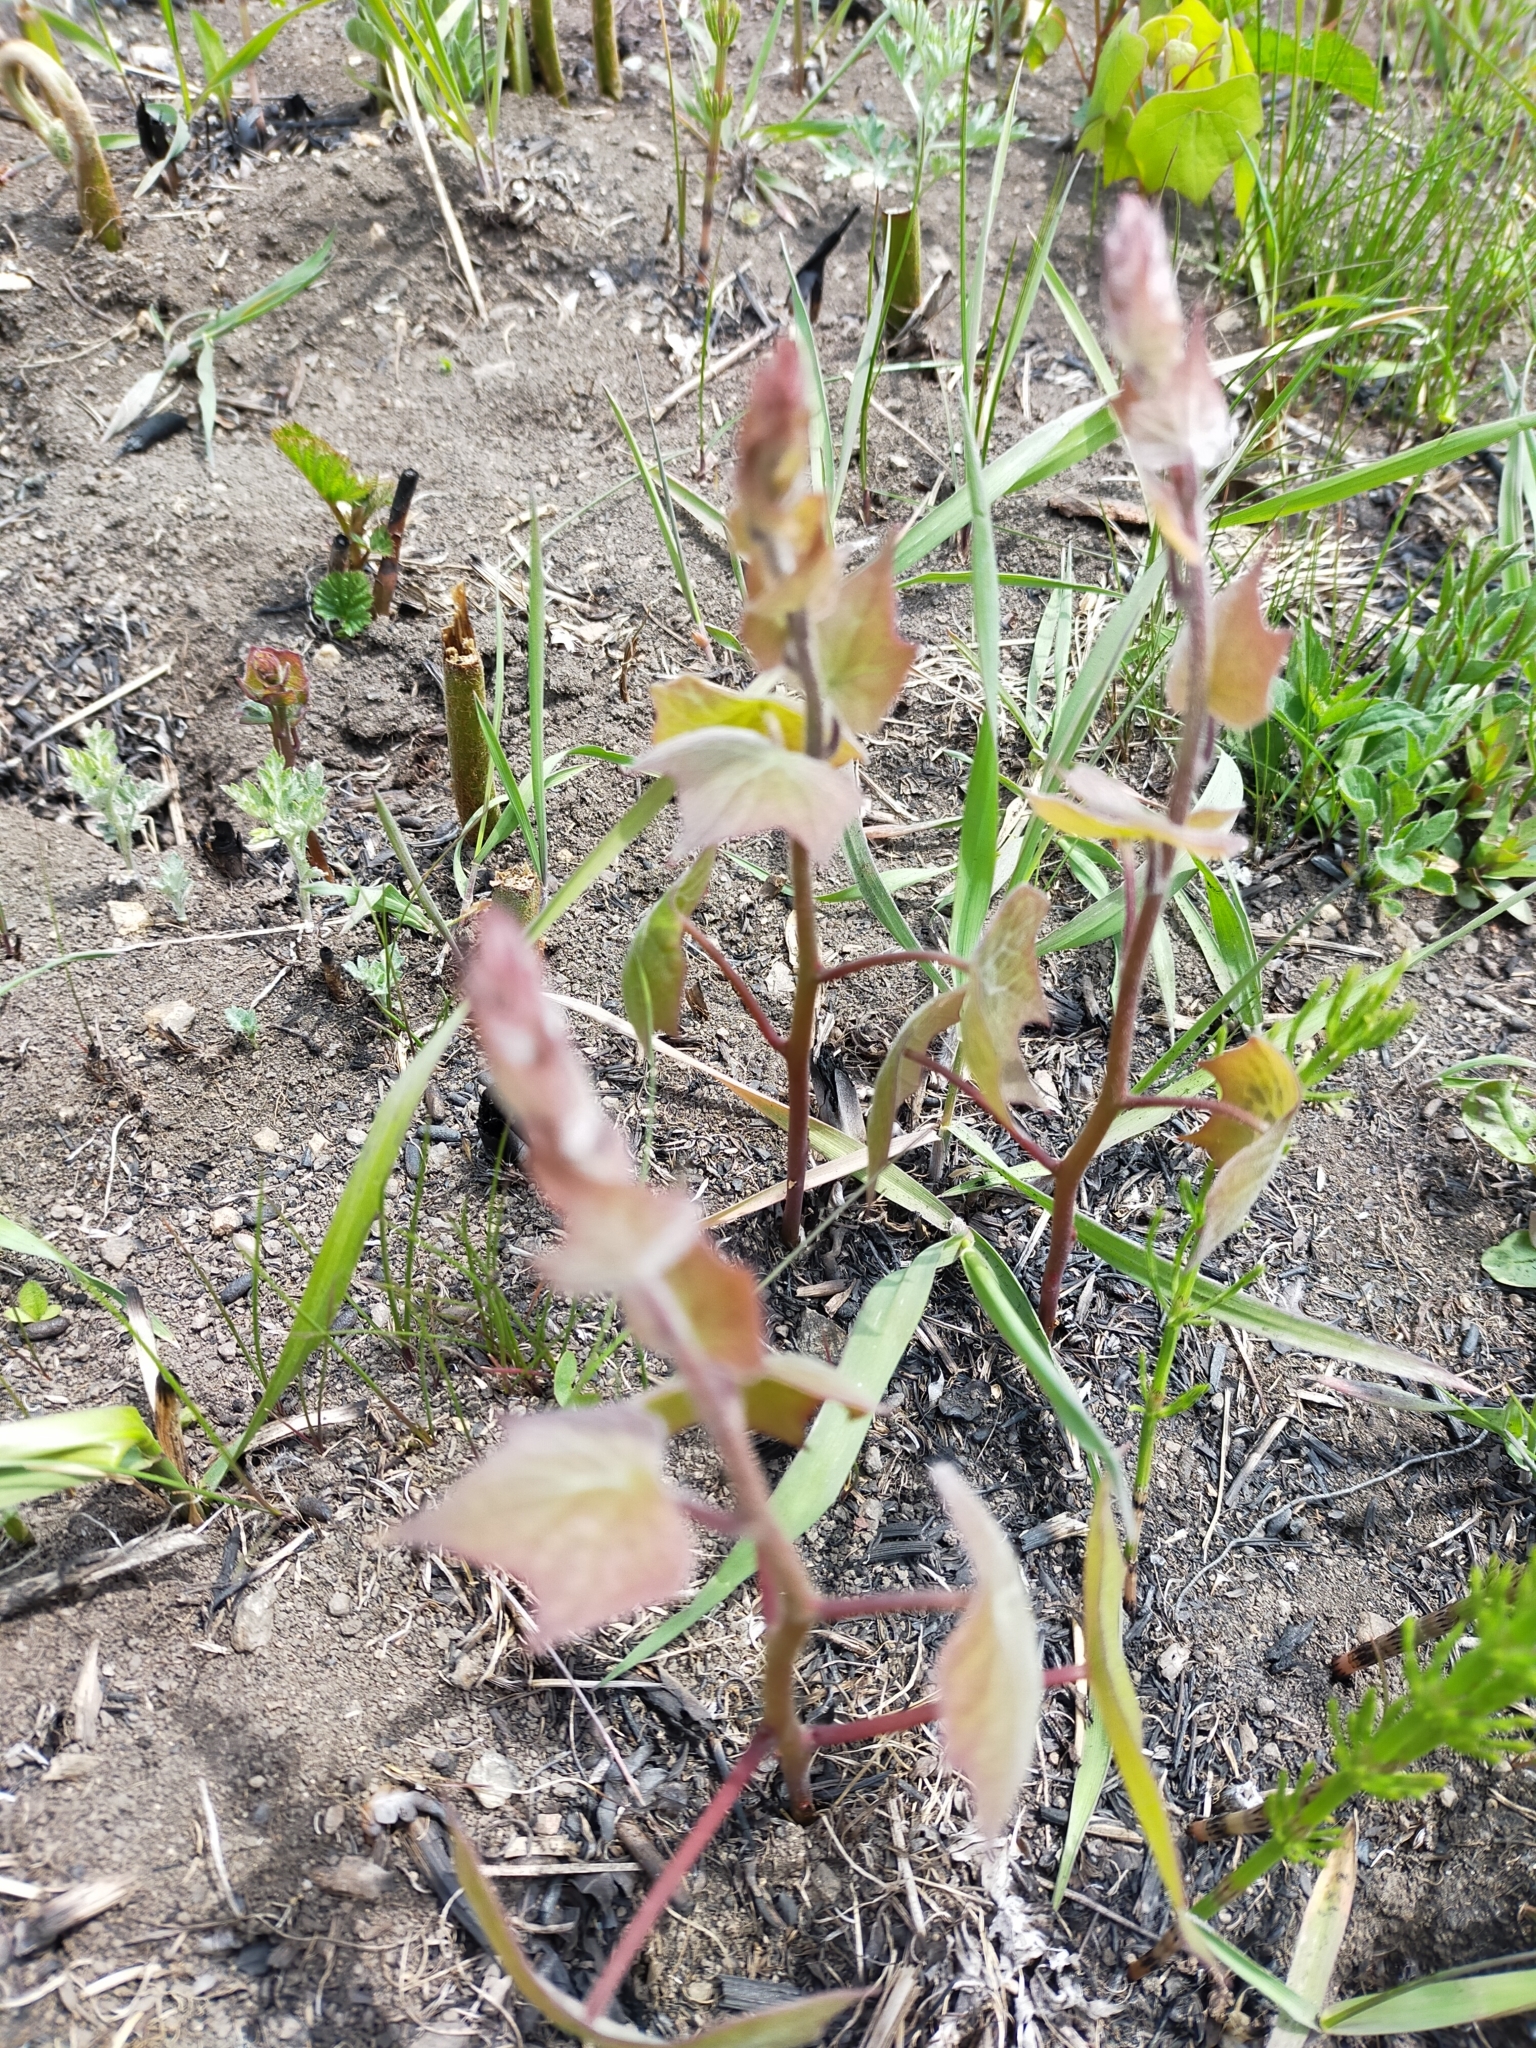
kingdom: Plantae
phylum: Tracheophyta
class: Magnoliopsida
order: Ranunculales
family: Menispermaceae
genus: Menispermum
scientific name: Menispermum dauricum
